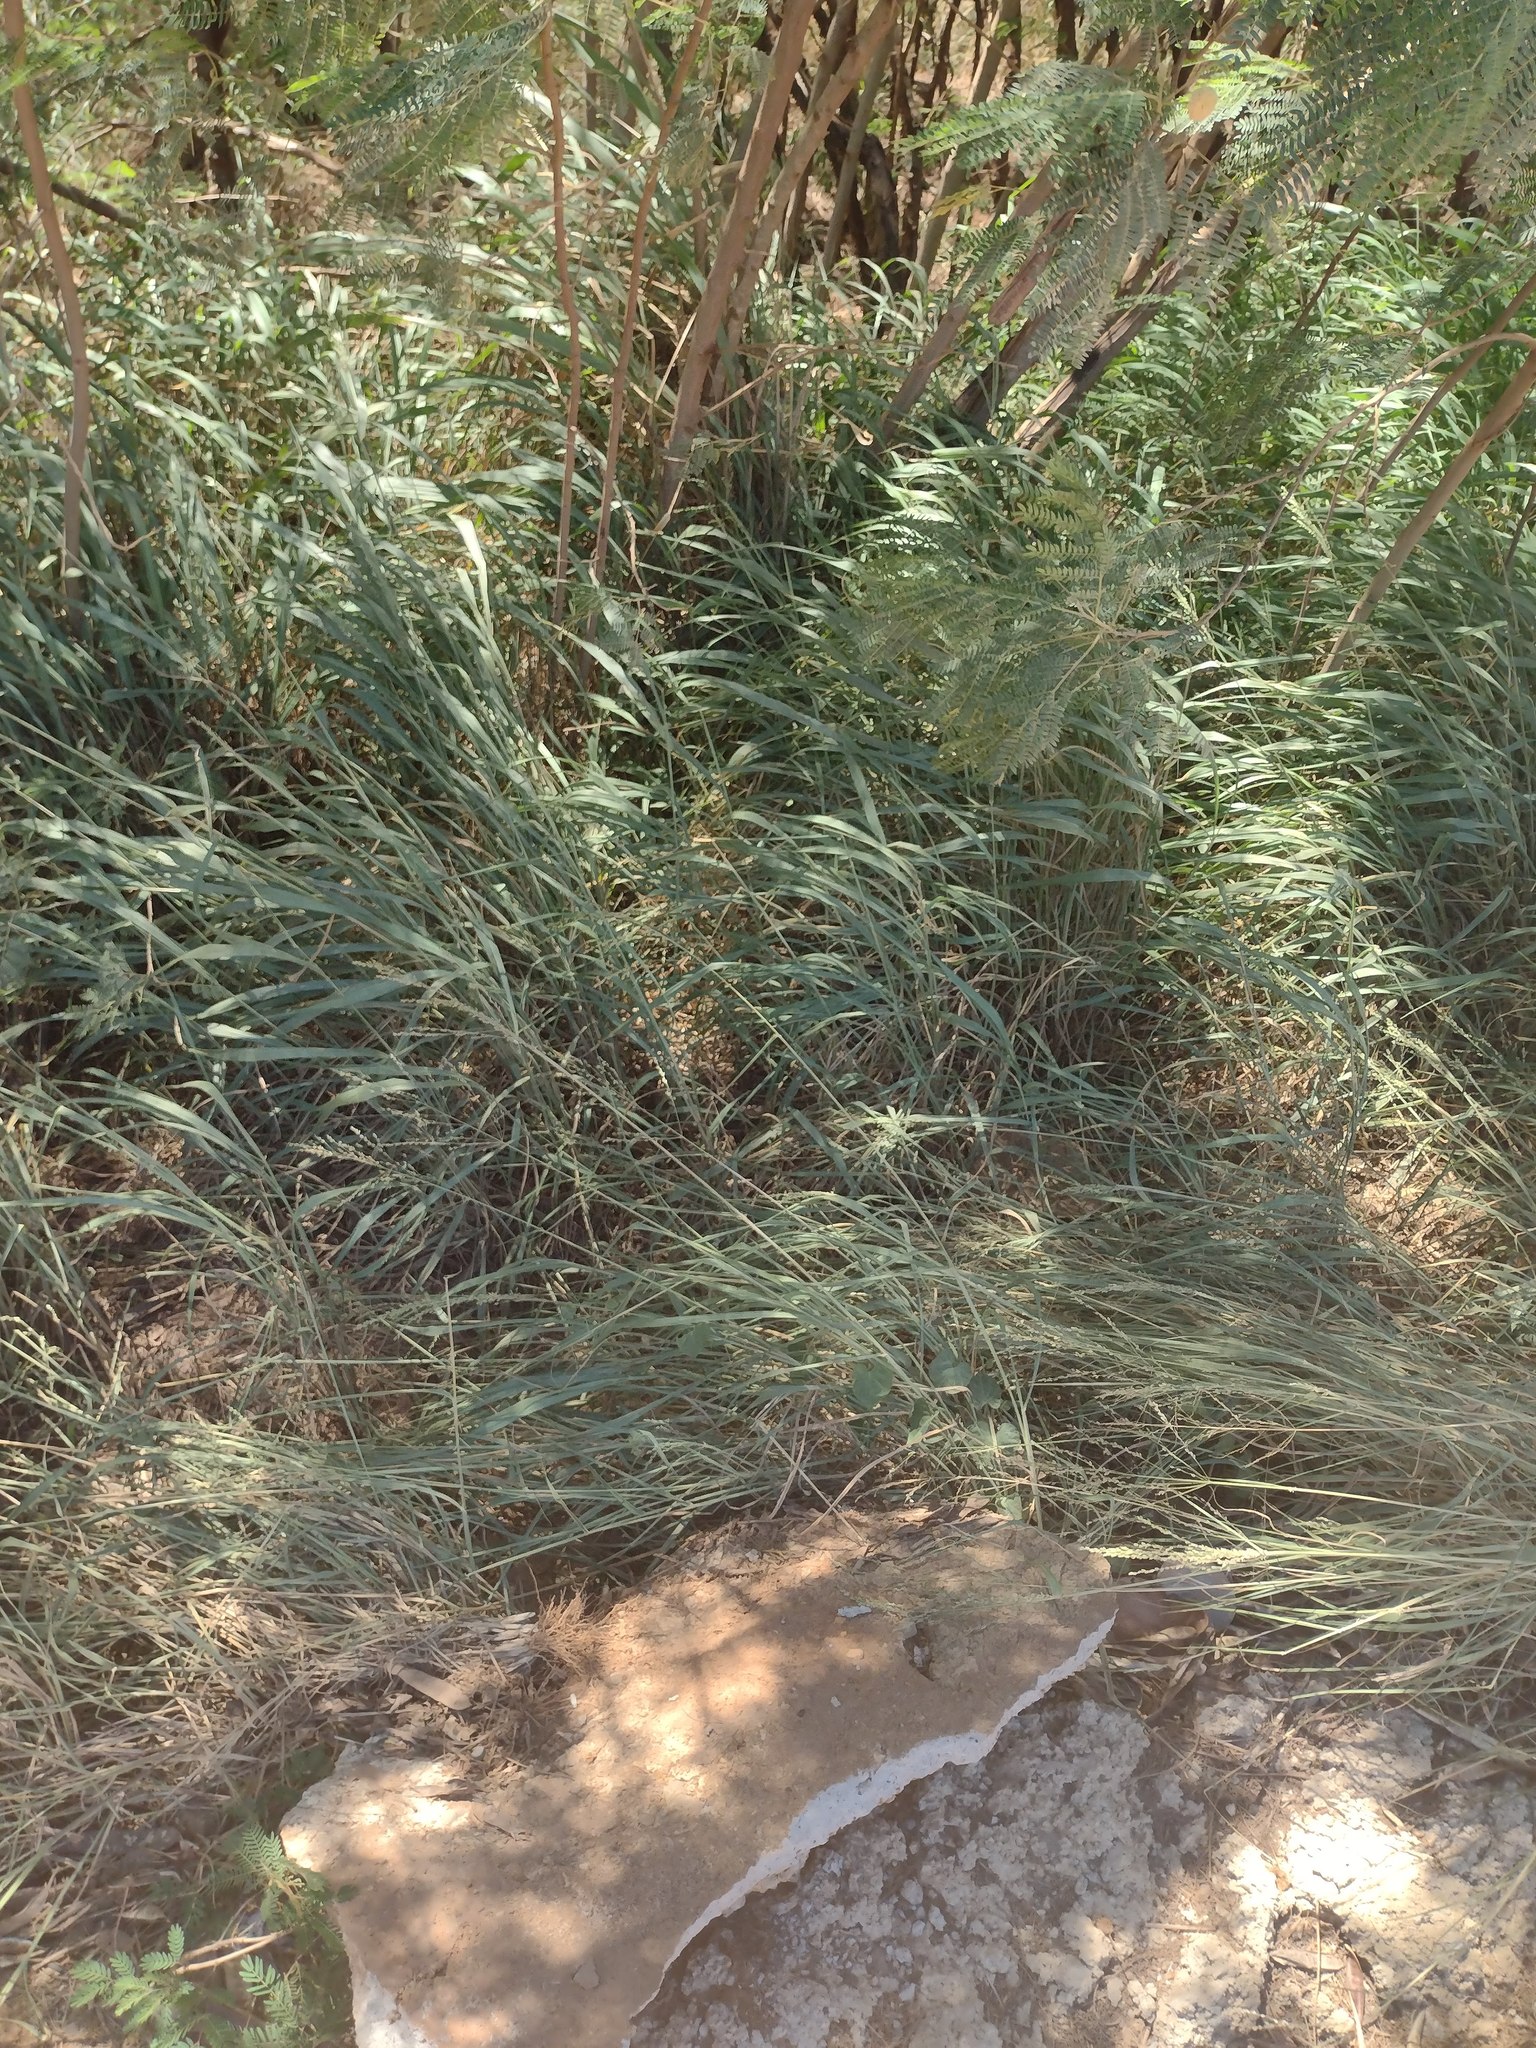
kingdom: Plantae
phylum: Tracheophyta
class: Liliopsida
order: Poales
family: Poaceae
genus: Megathyrsus
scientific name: Megathyrsus maximus
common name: Guineagrass
